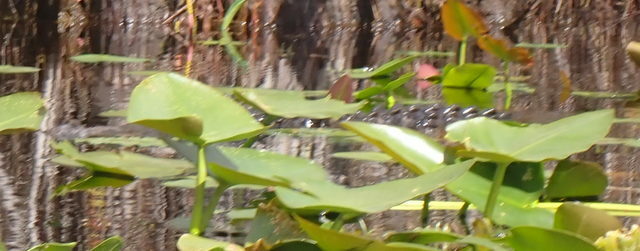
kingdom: Animalia
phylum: Chordata
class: Crocodylia
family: Alligatoridae
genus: Alligator
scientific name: Alligator mississippiensis
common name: American alligator
